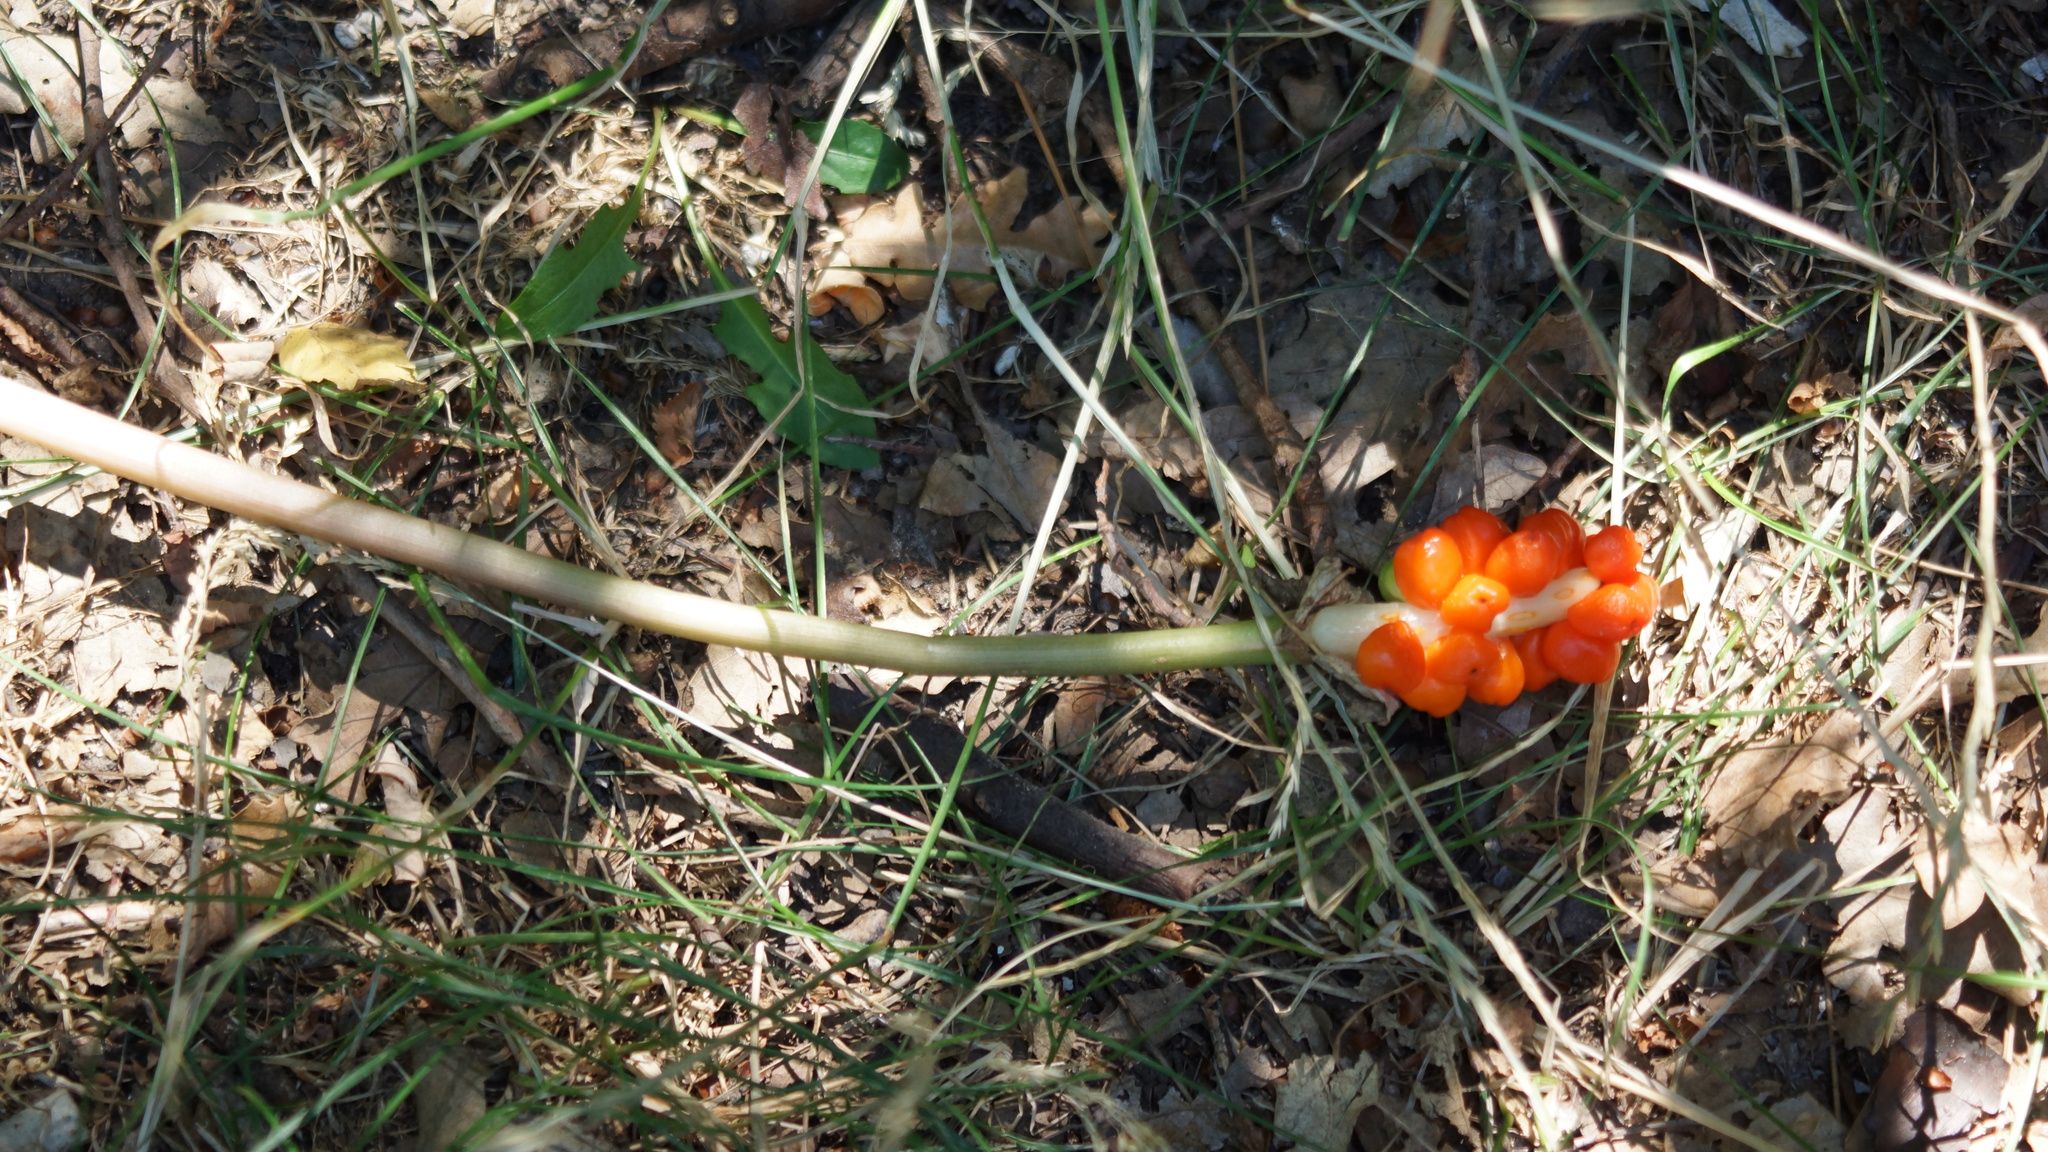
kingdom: Plantae
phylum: Tracheophyta
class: Liliopsida
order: Alismatales
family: Araceae
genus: Arum
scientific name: Arum maculatum
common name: Lords-and-ladies
